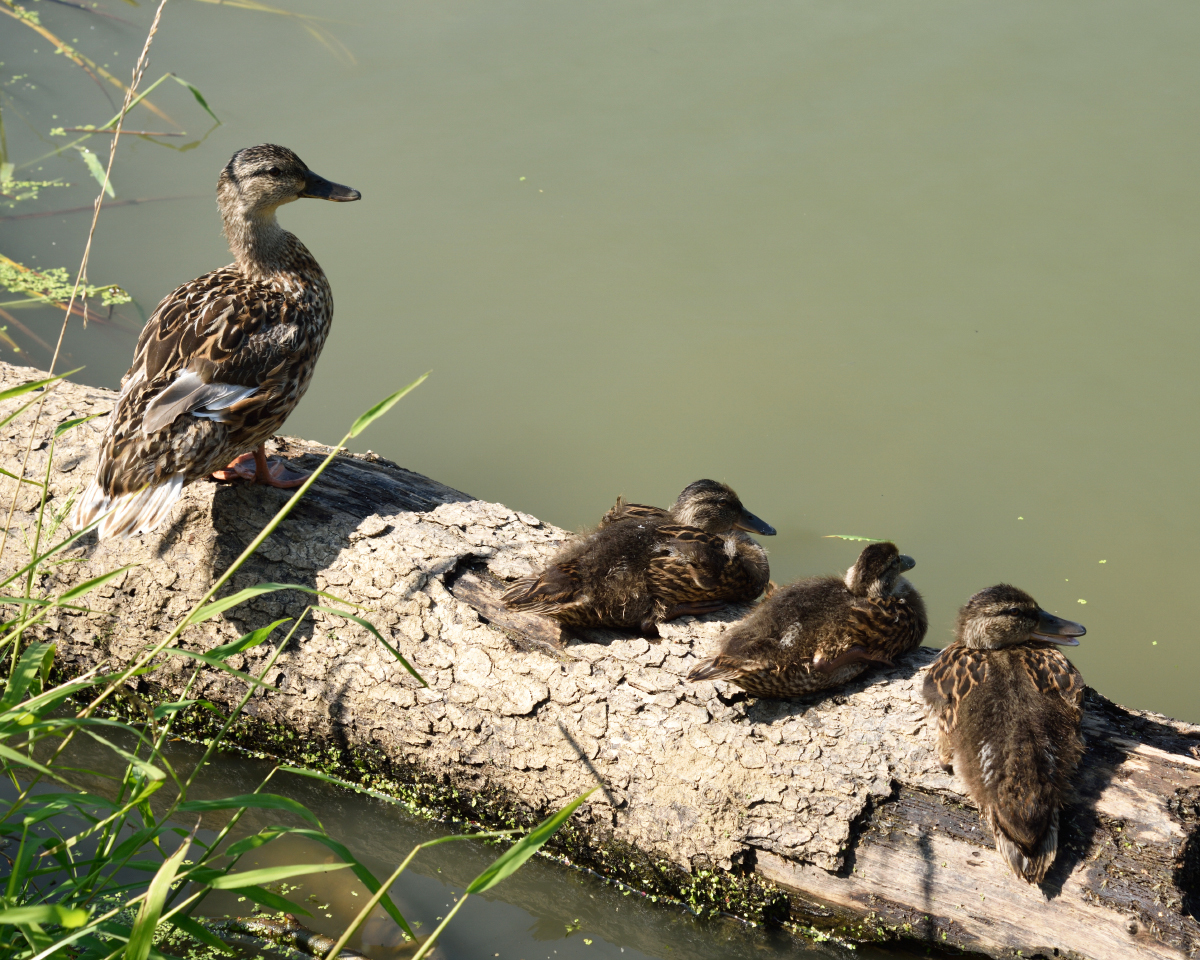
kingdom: Animalia
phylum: Chordata
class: Aves
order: Anseriformes
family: Anatidae
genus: Anas
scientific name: Anas platyrhynchos
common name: Mallard
